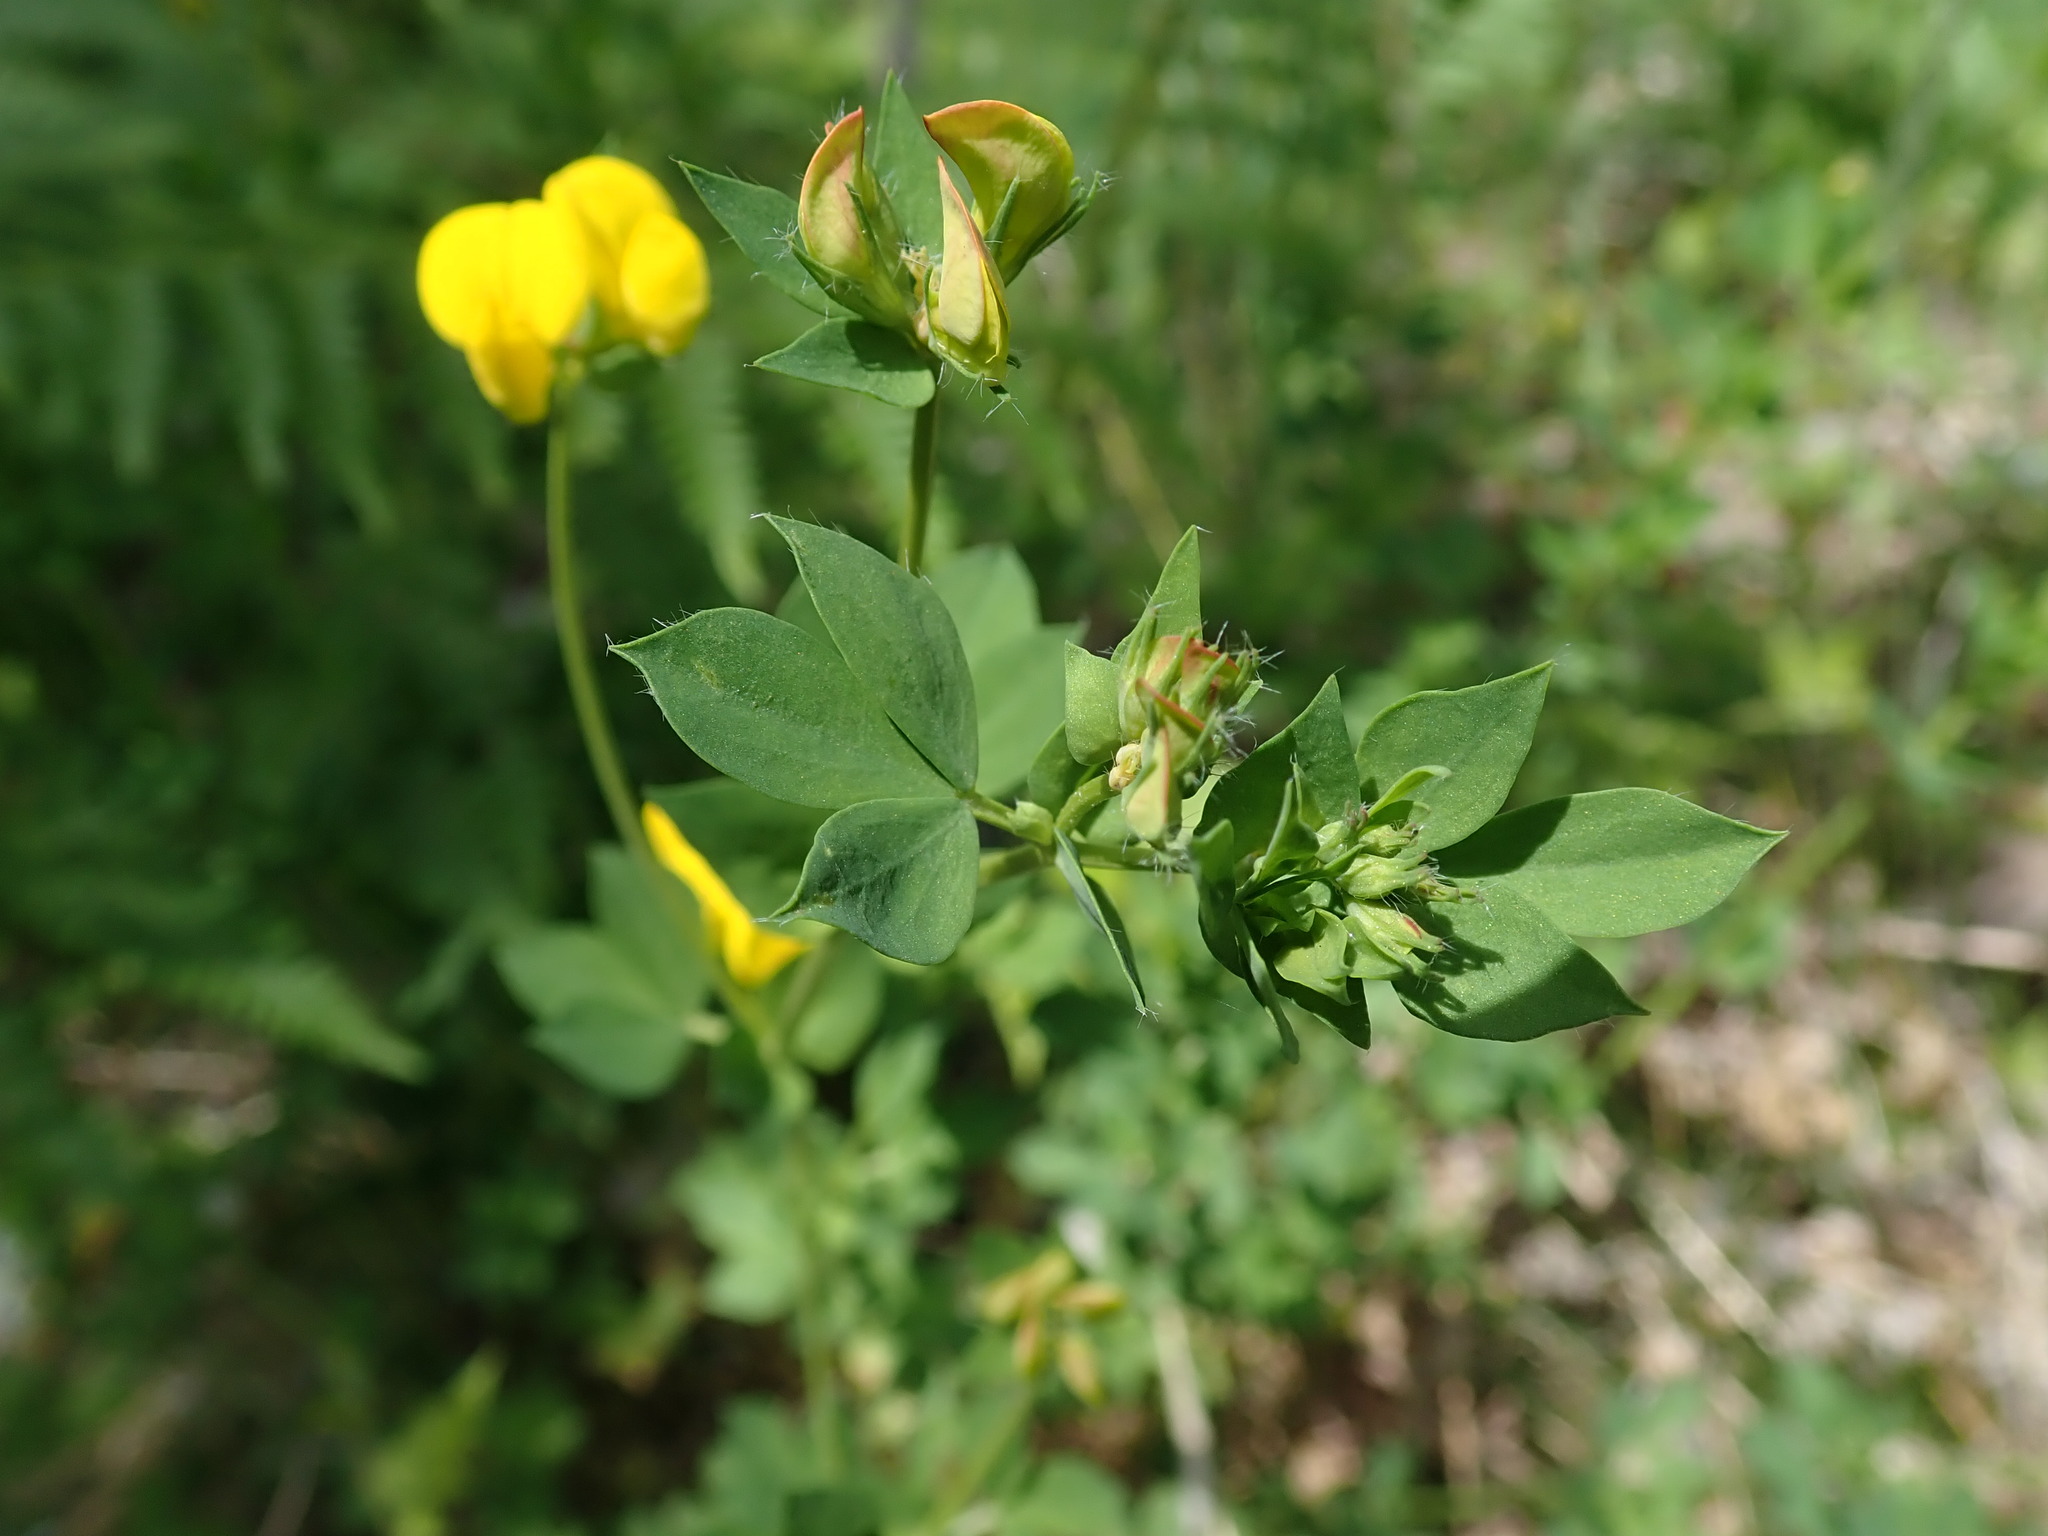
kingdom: Plantae
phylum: Tracheophyta
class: Magnoliopsida
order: Fabales
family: Fabaceae
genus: Lotus
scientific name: Lotus corniculatus
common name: Common bird's-foot-trefoil
